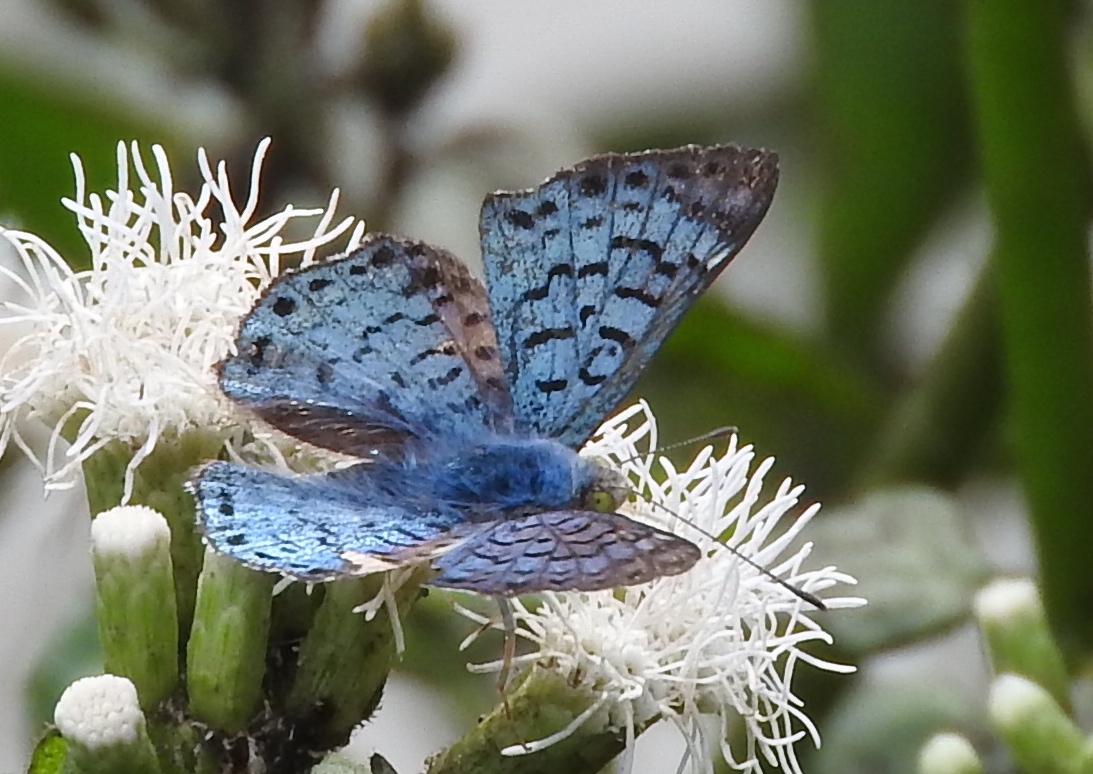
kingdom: Animalia
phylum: Arthropoda
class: Insecta
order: Lepidoptera
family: Riodinidae
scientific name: Riodinidae
